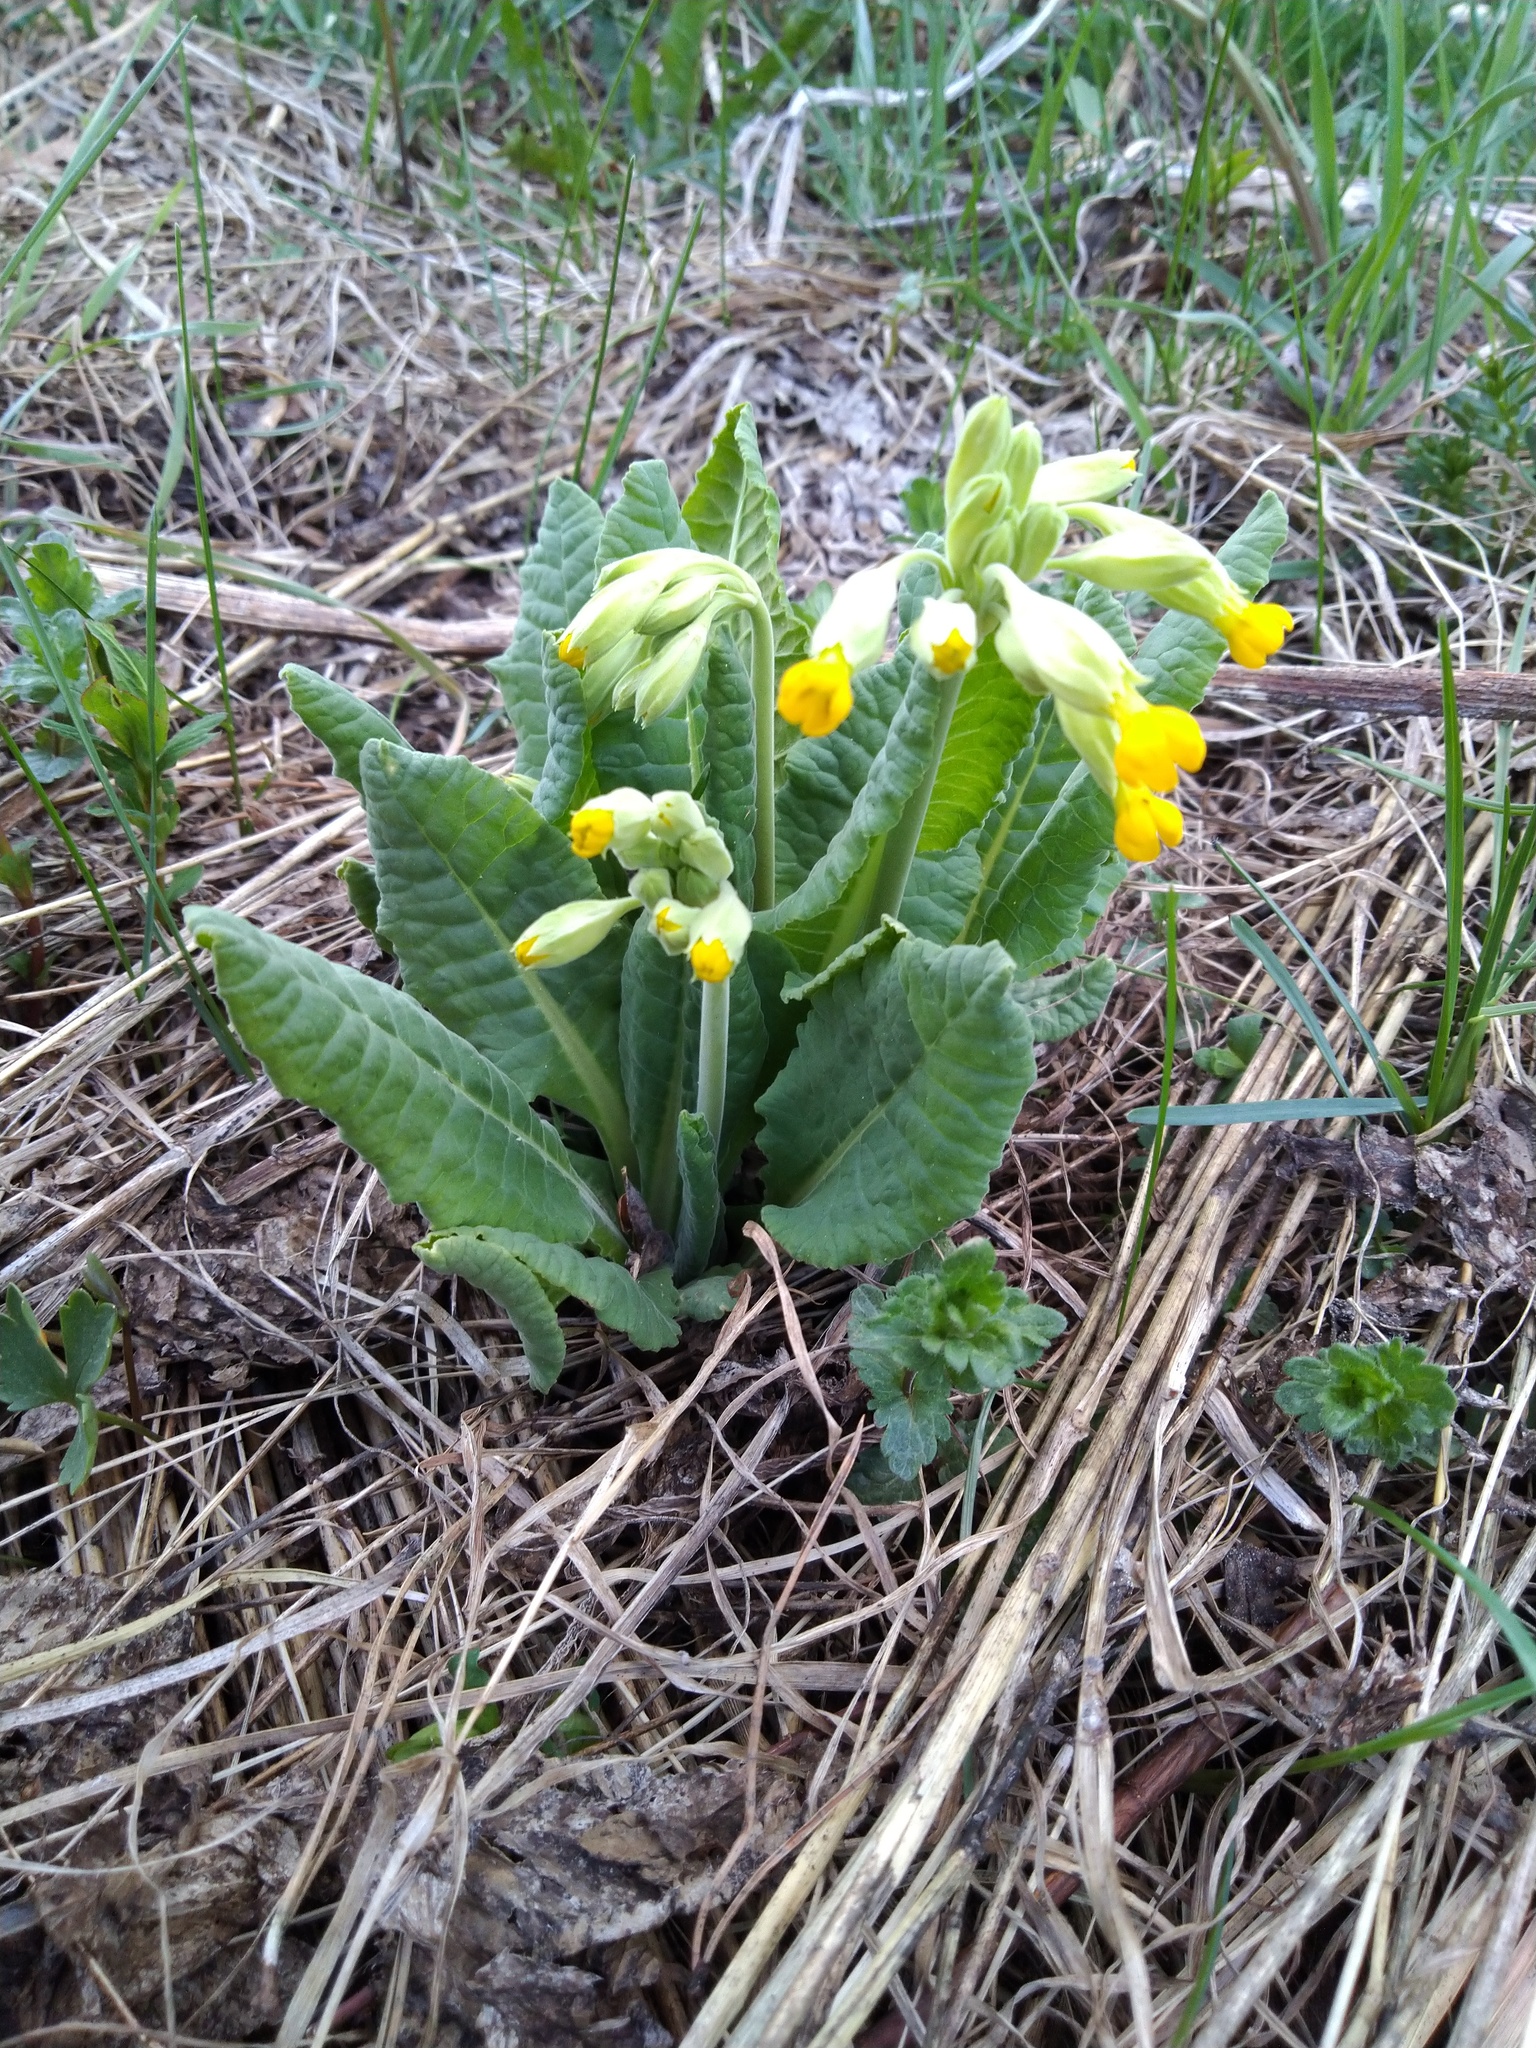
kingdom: Plantae
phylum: Tracheophyta
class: Magnoliopsida
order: Ericales
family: Primulaceae
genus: Primula
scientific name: Primula veris
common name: Cowslip
